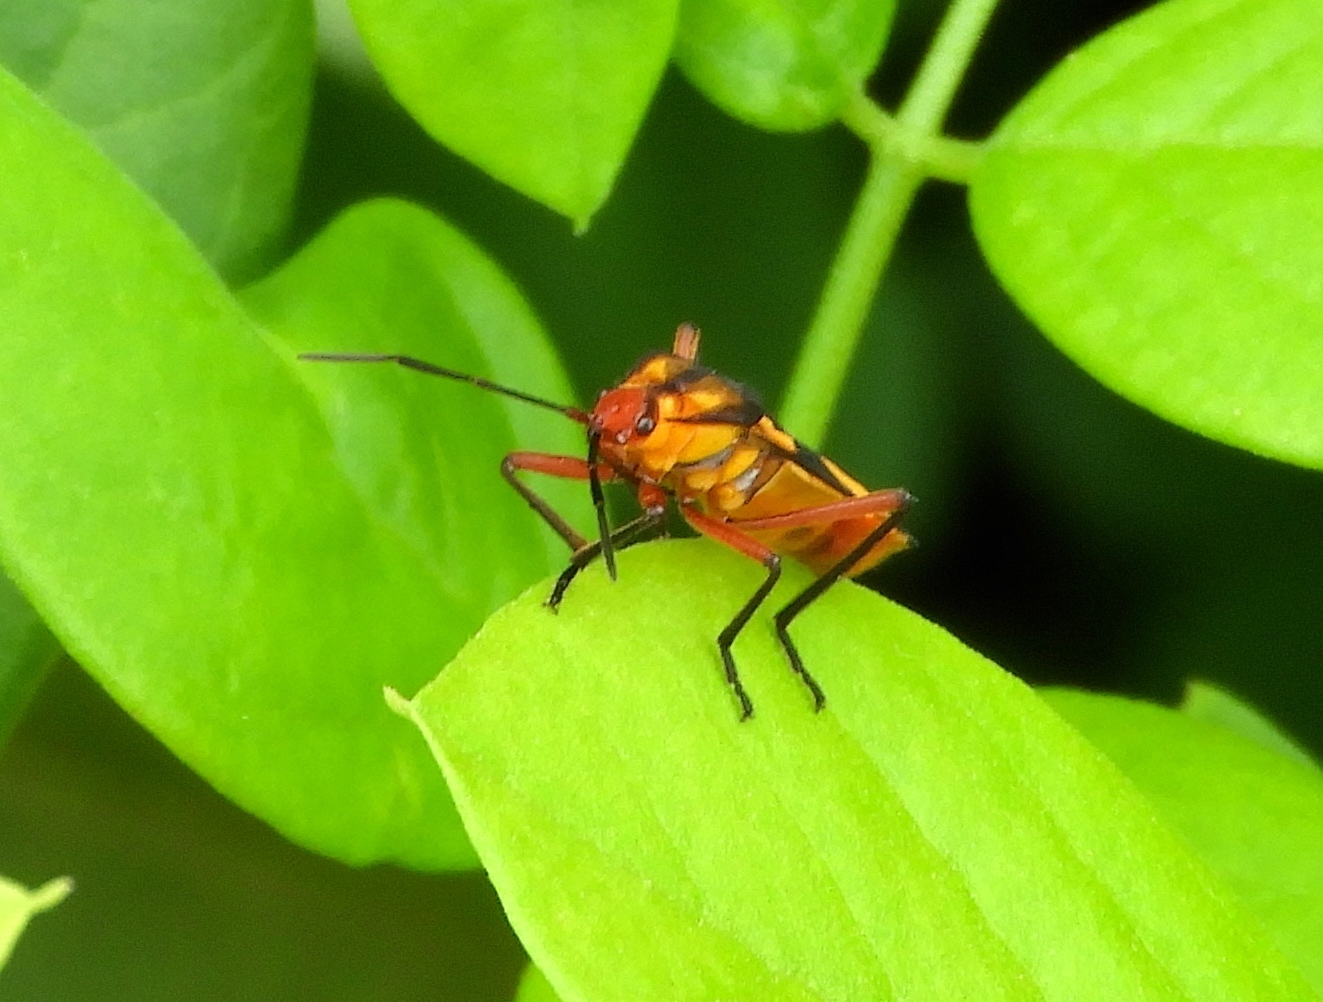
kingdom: Animalia
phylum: Arthropoda
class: Insecta
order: Hemiptera
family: Lygaeidae
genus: Oncopeltus
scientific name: Oncopeltus guttaloides
